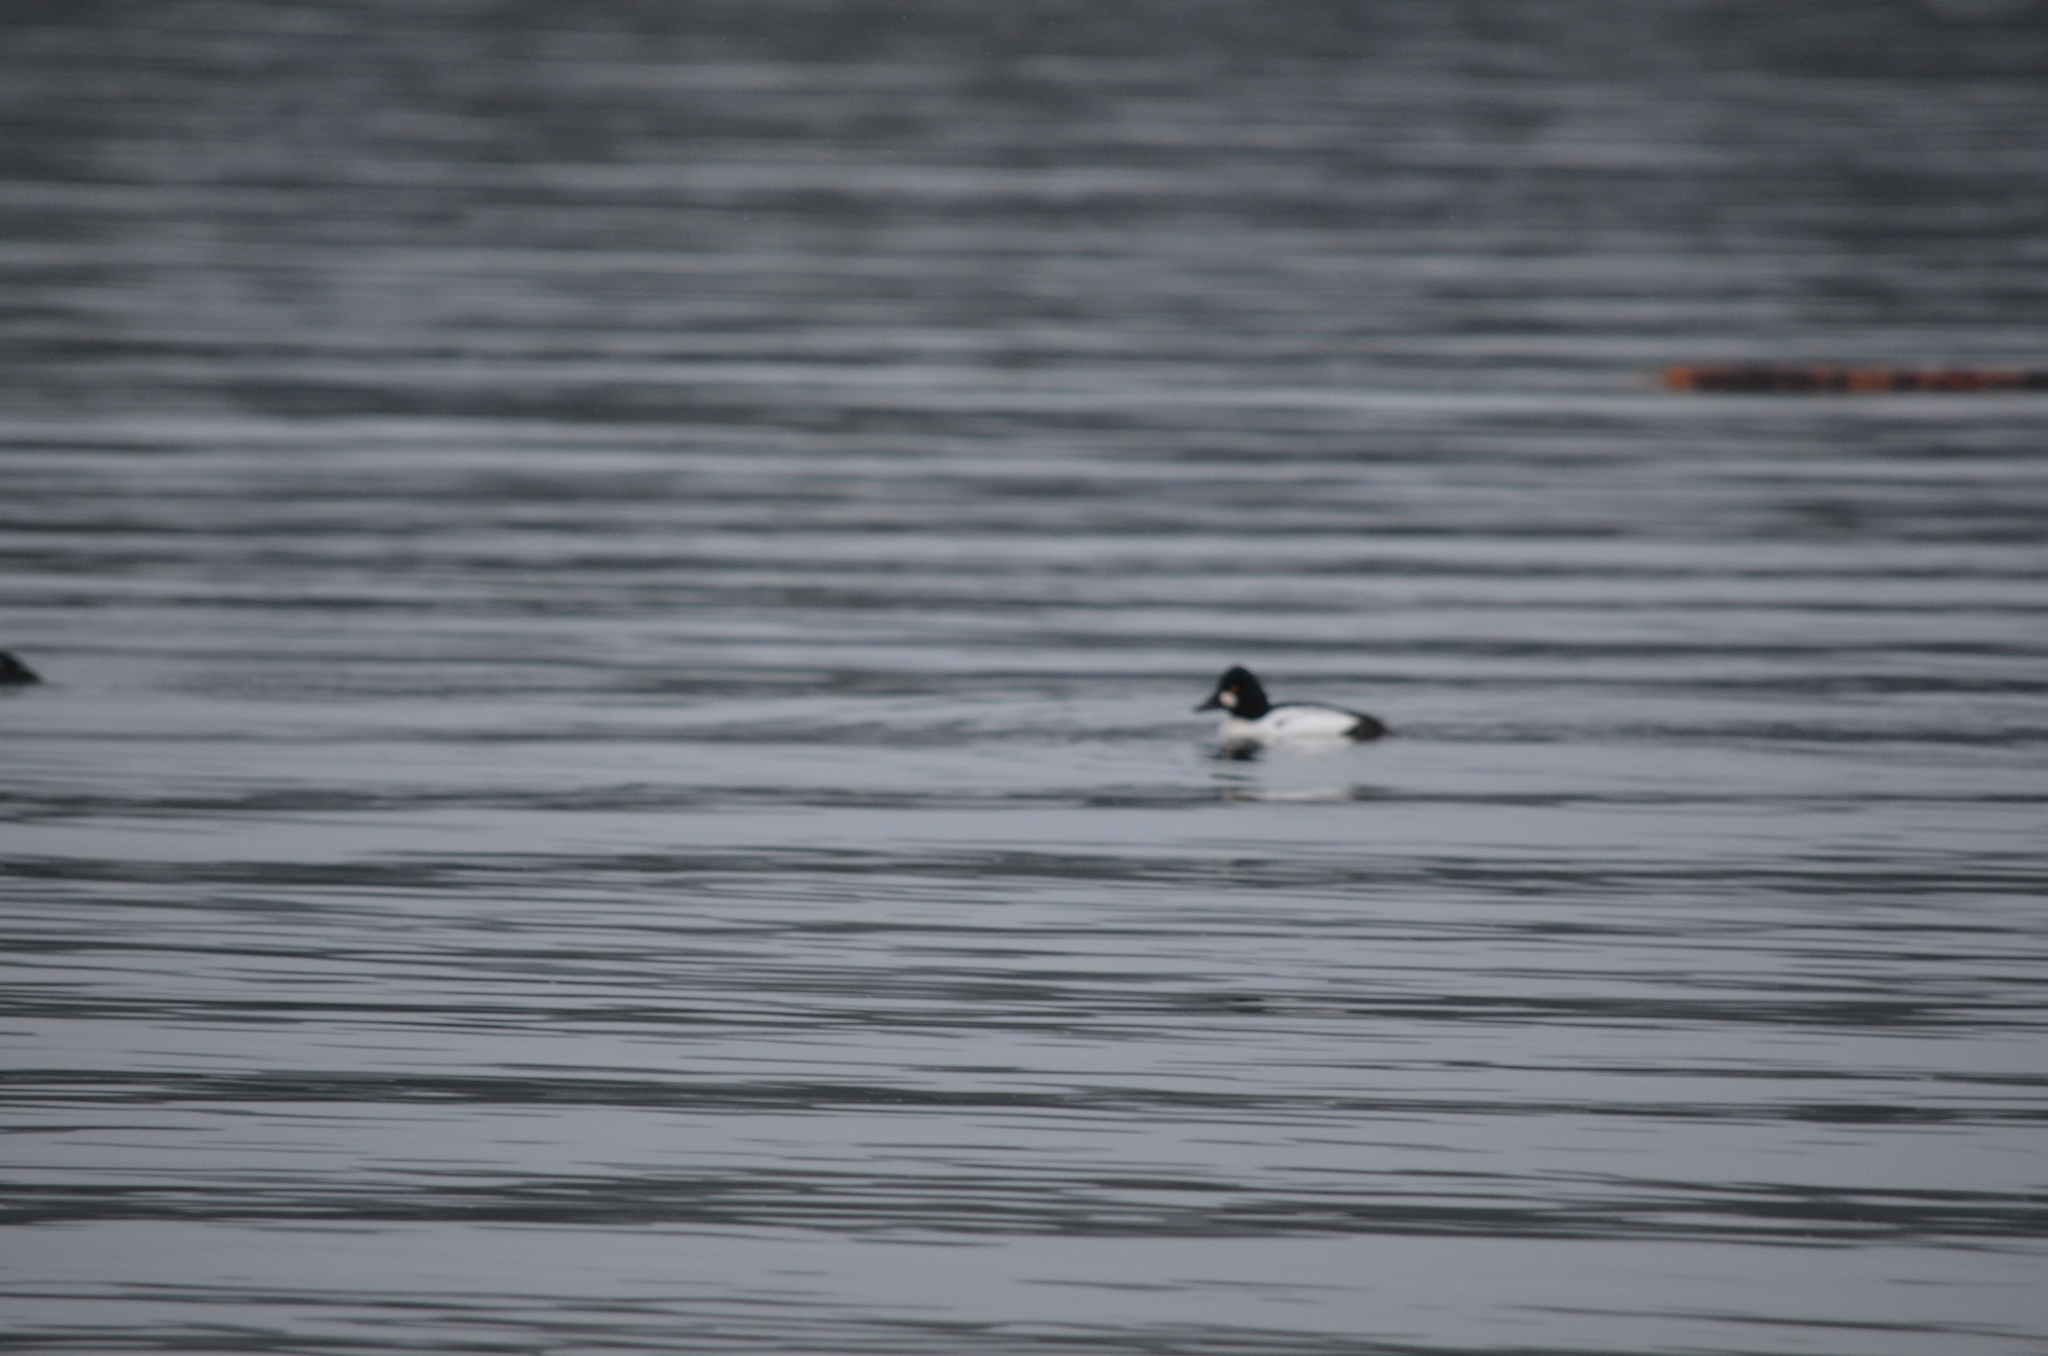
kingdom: Animalia
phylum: Chordata
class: Aves
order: Anseriformes
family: Anatidae
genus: Bucephala
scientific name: Bucephala clangula
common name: Common goldeneye
